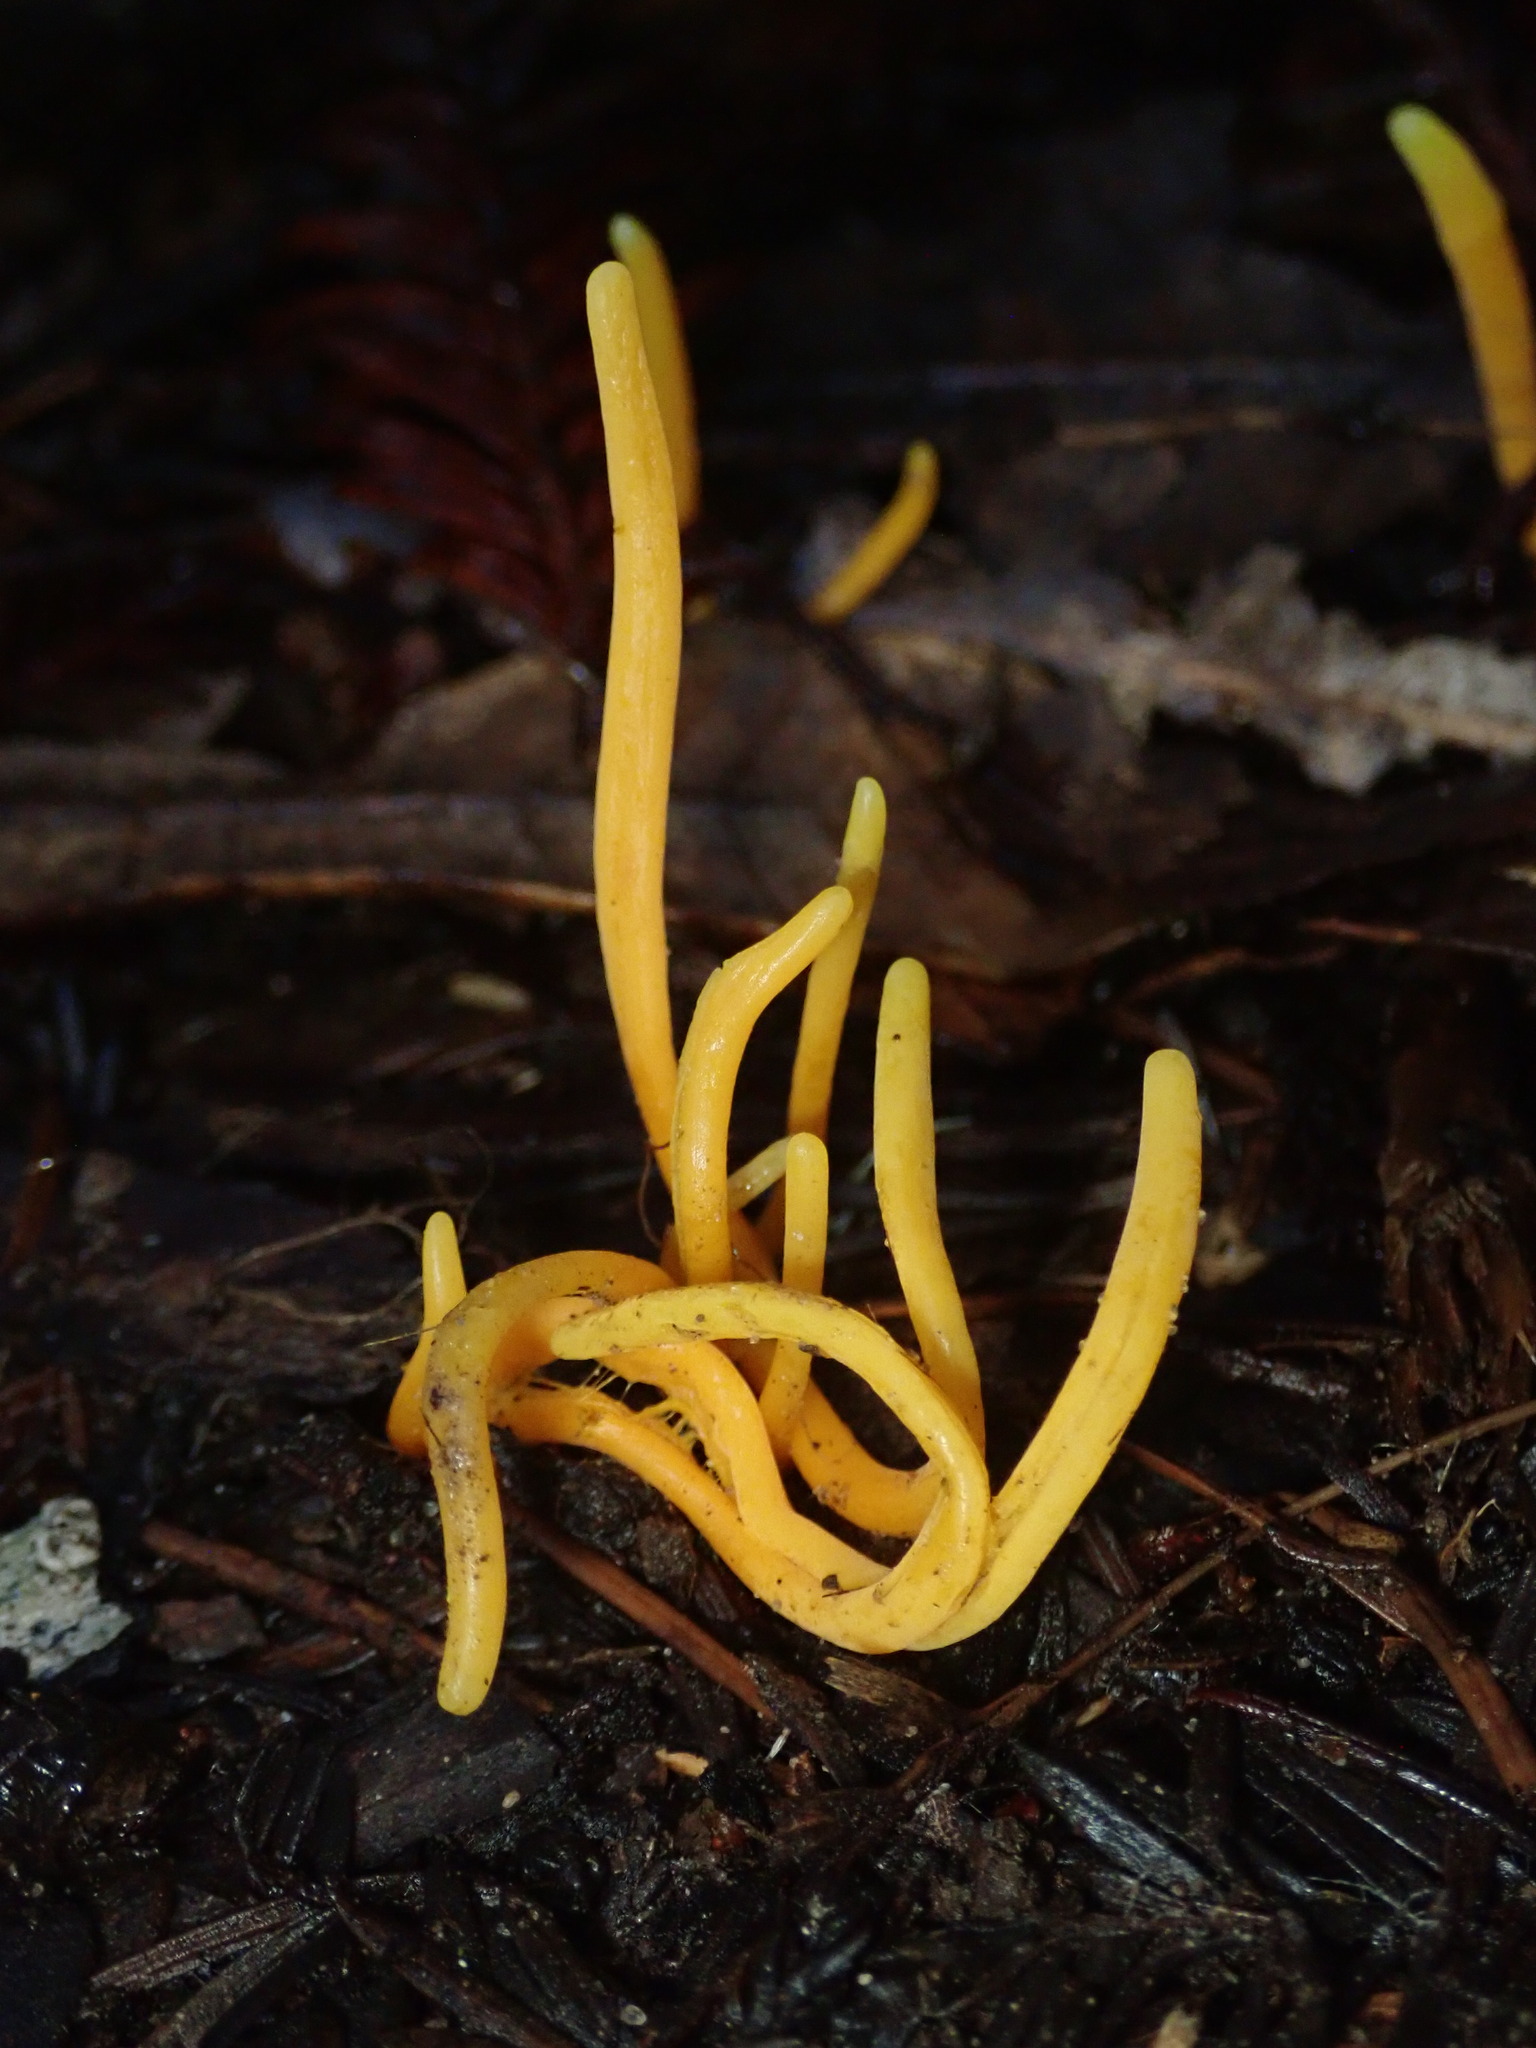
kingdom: Fungi
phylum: Basidiomycota
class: Agaricomycetes
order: Agaricales
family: Clavariaceae
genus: Clavulinopsis
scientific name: Clavulinopsis laeticolor
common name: Handsome club
